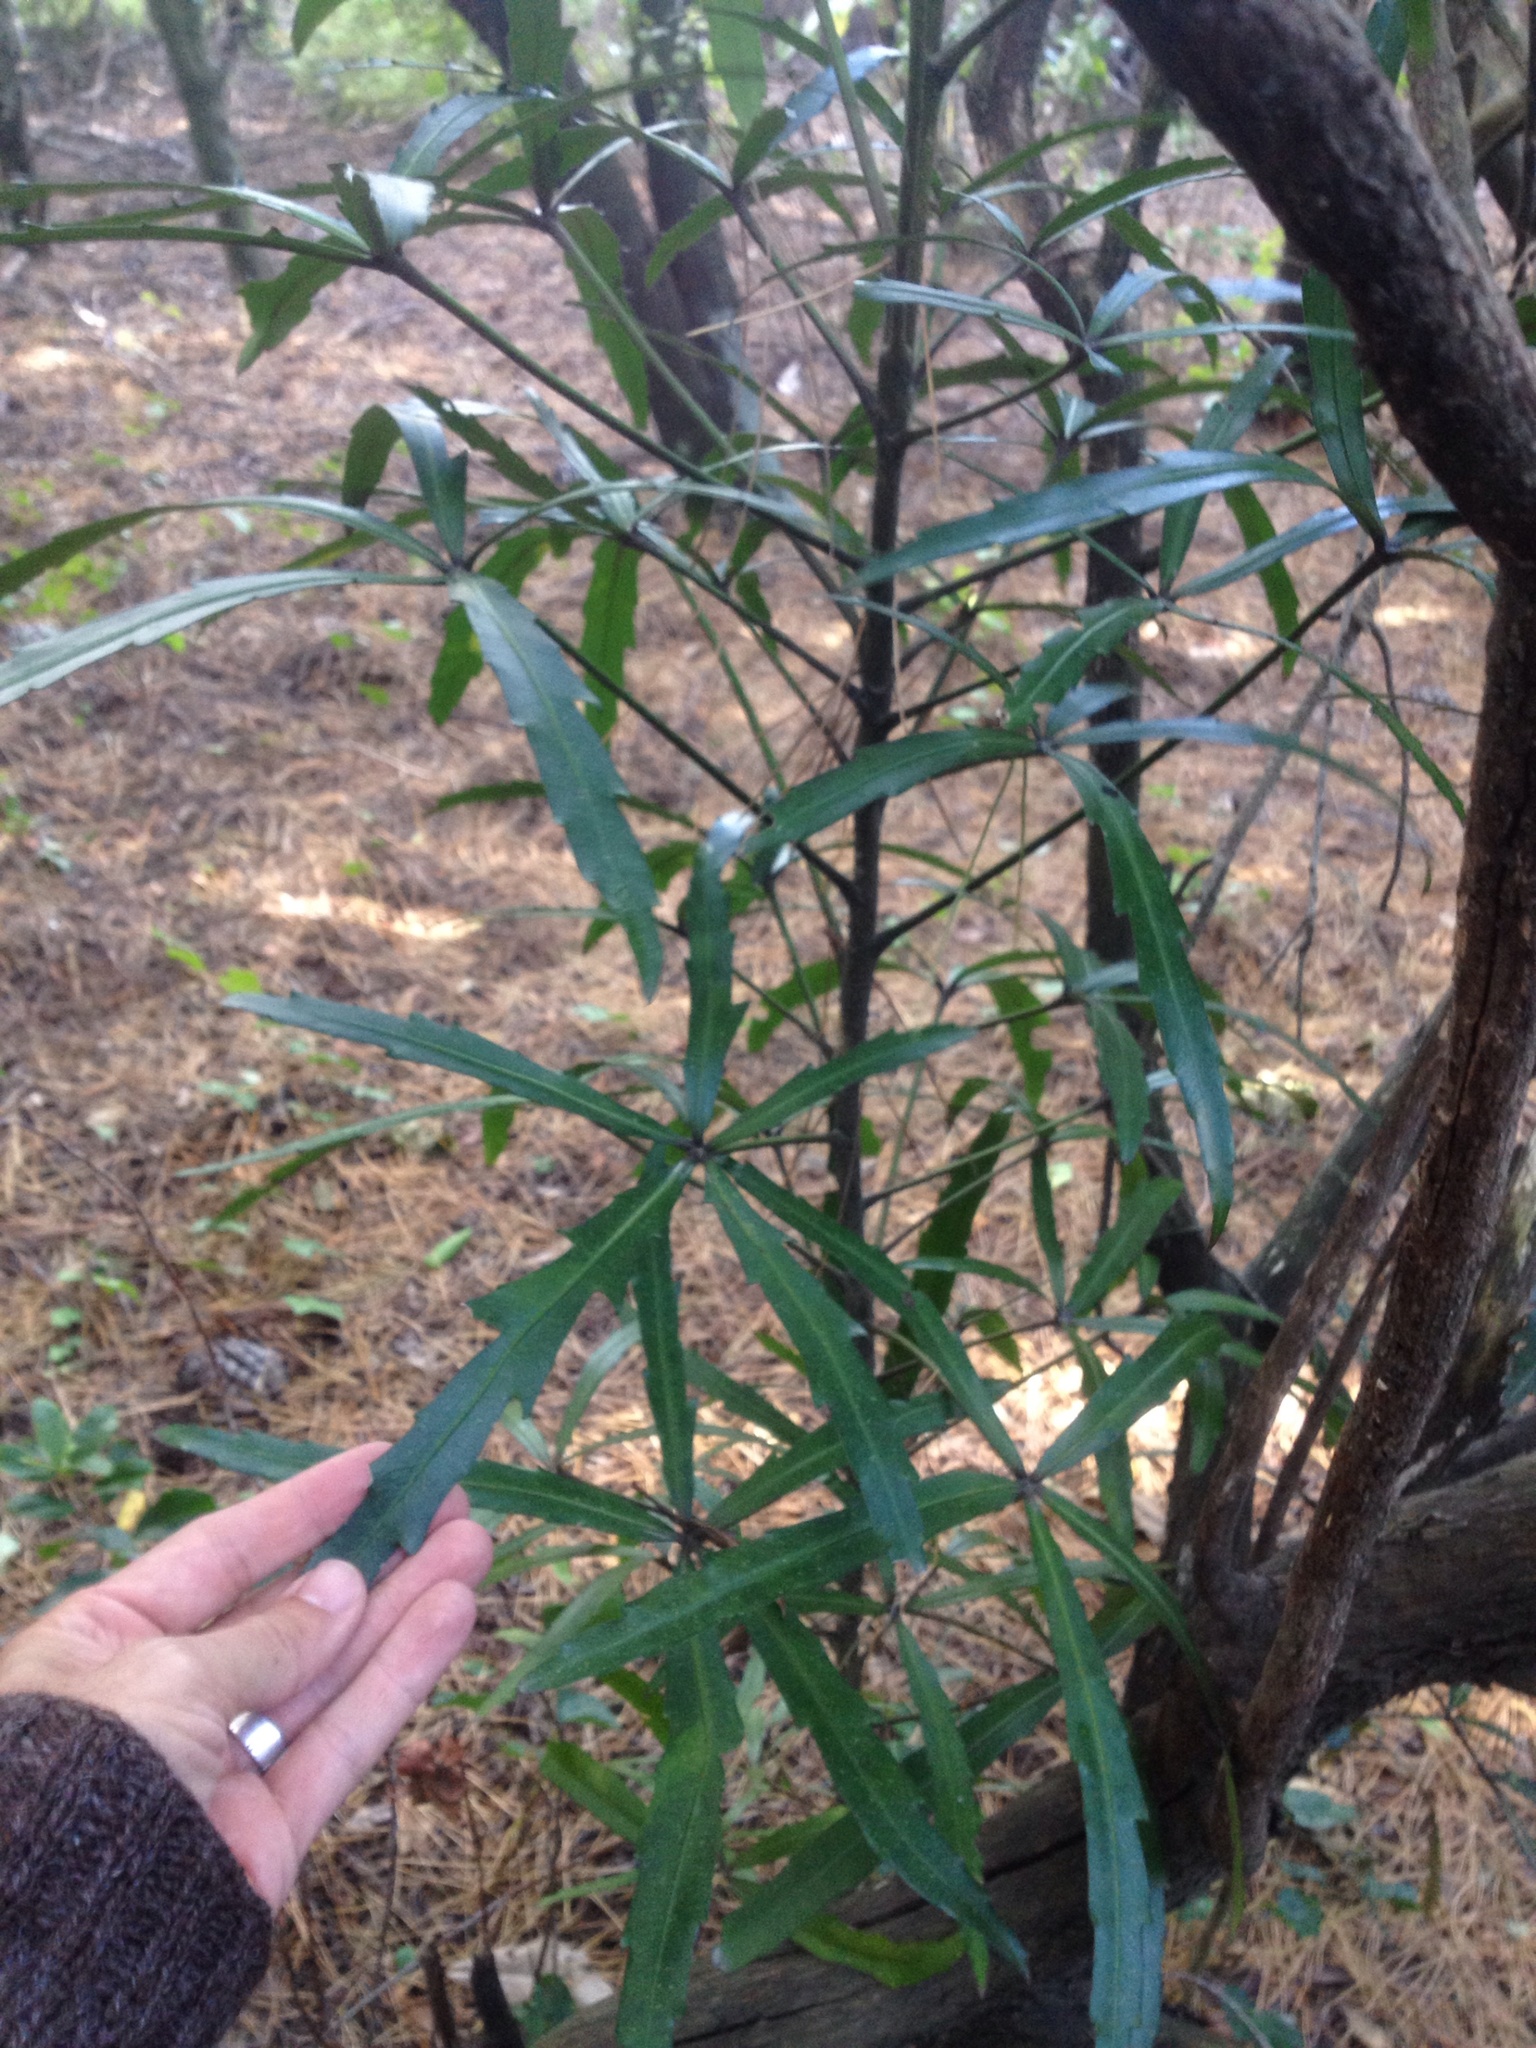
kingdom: Plantae
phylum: Tracheophyta
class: Magnoliopsida
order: Apiales
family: Araliaceae
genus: Pseudopanax
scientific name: Pseudopanax
